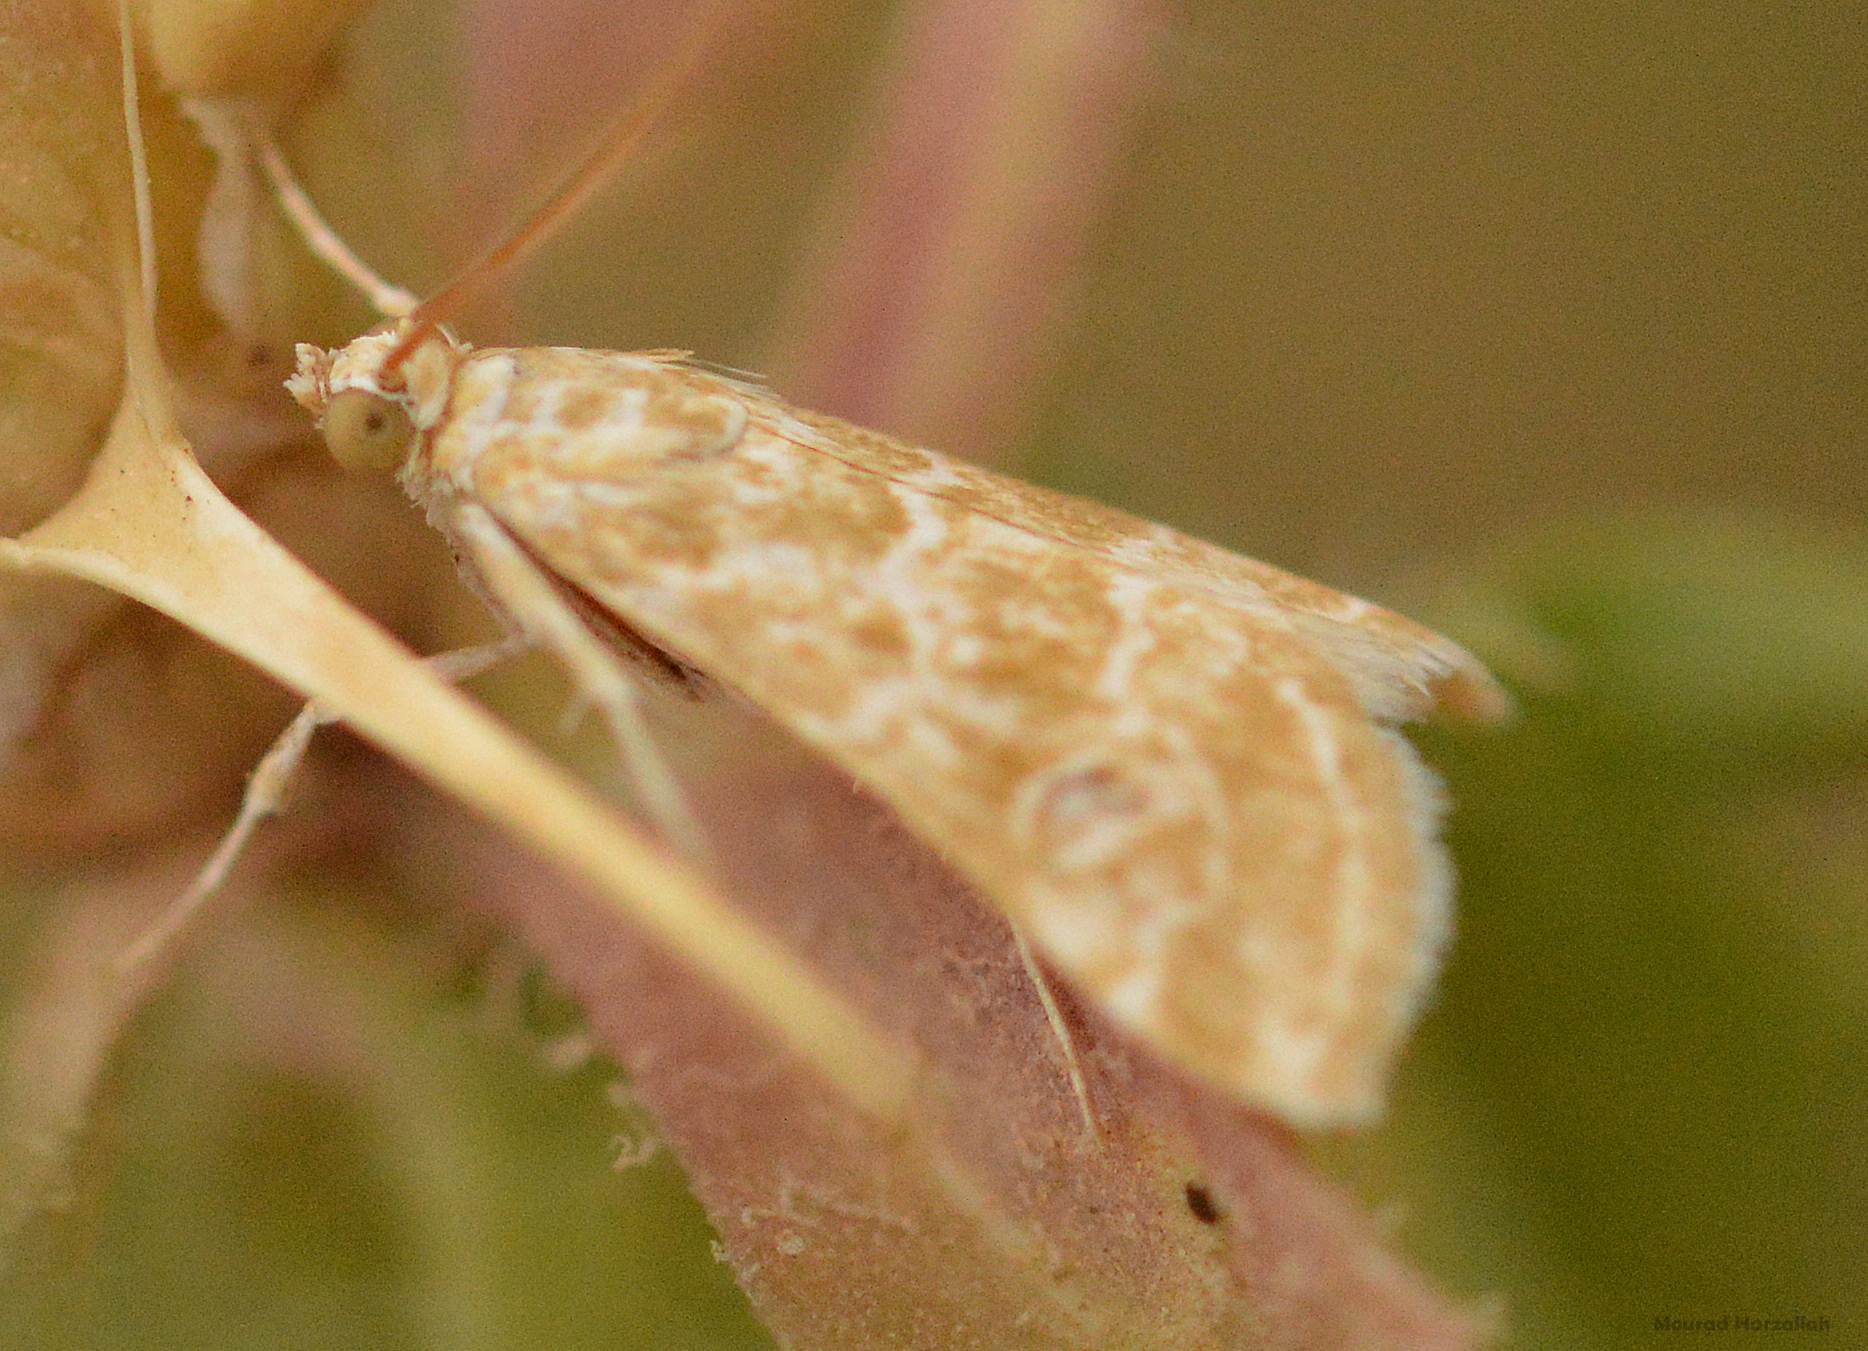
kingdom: Animalia
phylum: Arthropoda
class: Insecta
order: Lepidoptera
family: Crambidae
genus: Hellula
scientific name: Hellula undalis
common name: Cabbage webworm
